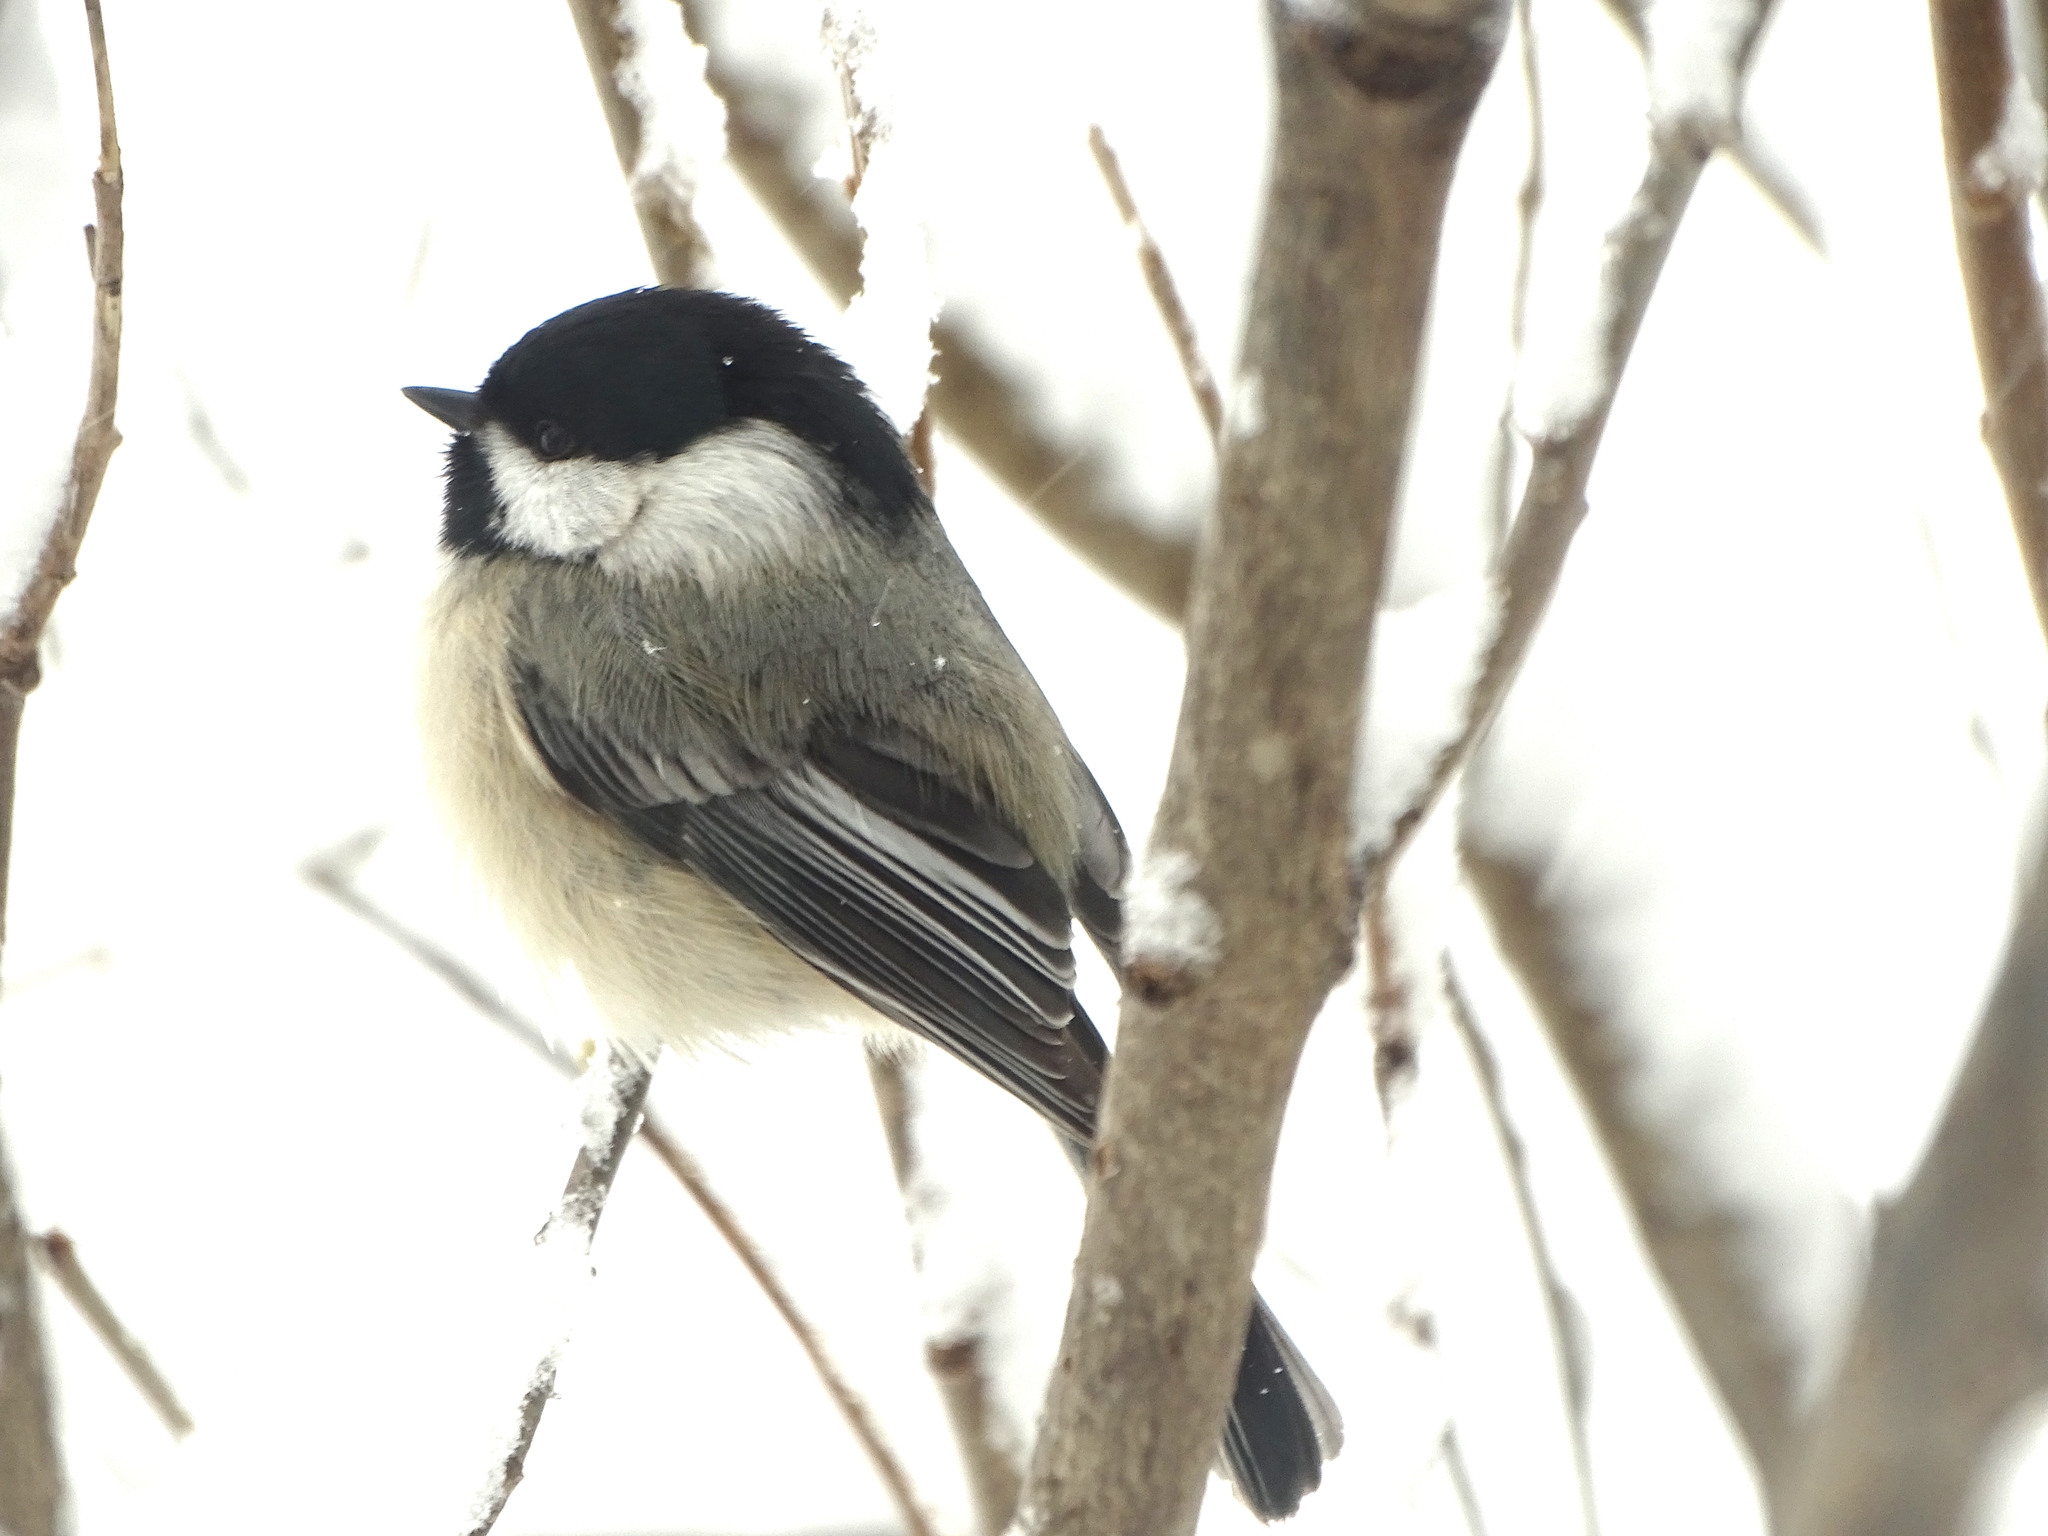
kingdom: Animalia
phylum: Chordata
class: Aves
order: Passeriformes
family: Paridae
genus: Poecile
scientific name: Poecile atricapillus
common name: Black-capped chickadee
